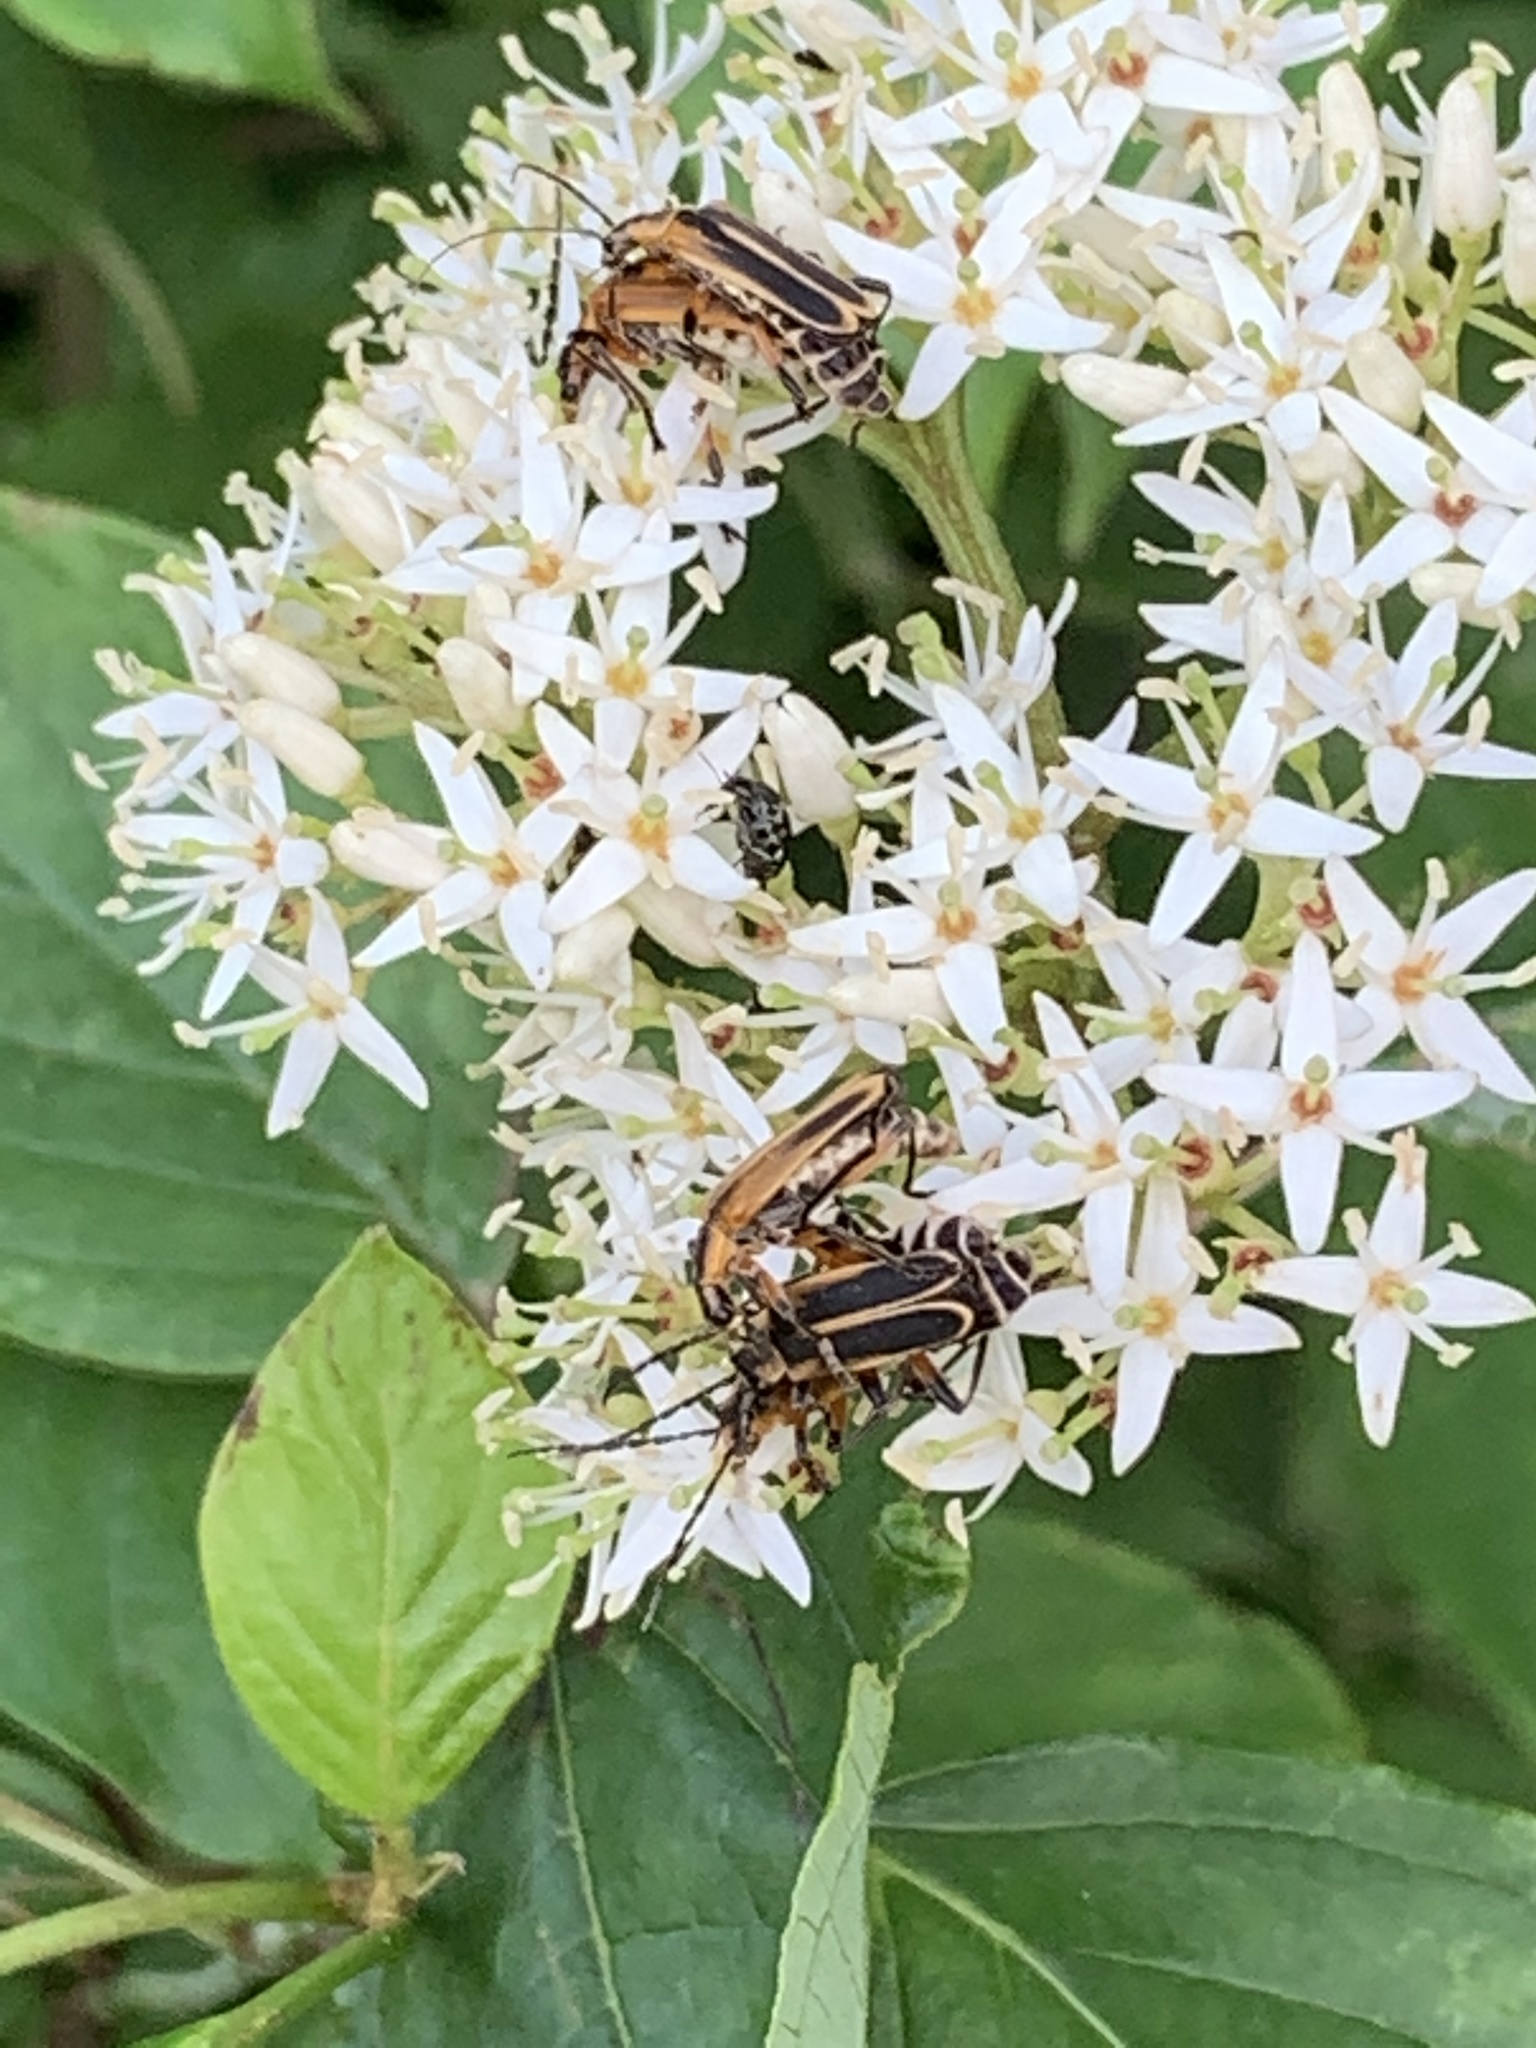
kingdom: Animalia
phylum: Arthropoda
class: Insecta
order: Coleoptera
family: Cantharidae
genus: Chauliognathus
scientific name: Chauliognathus marginatus
